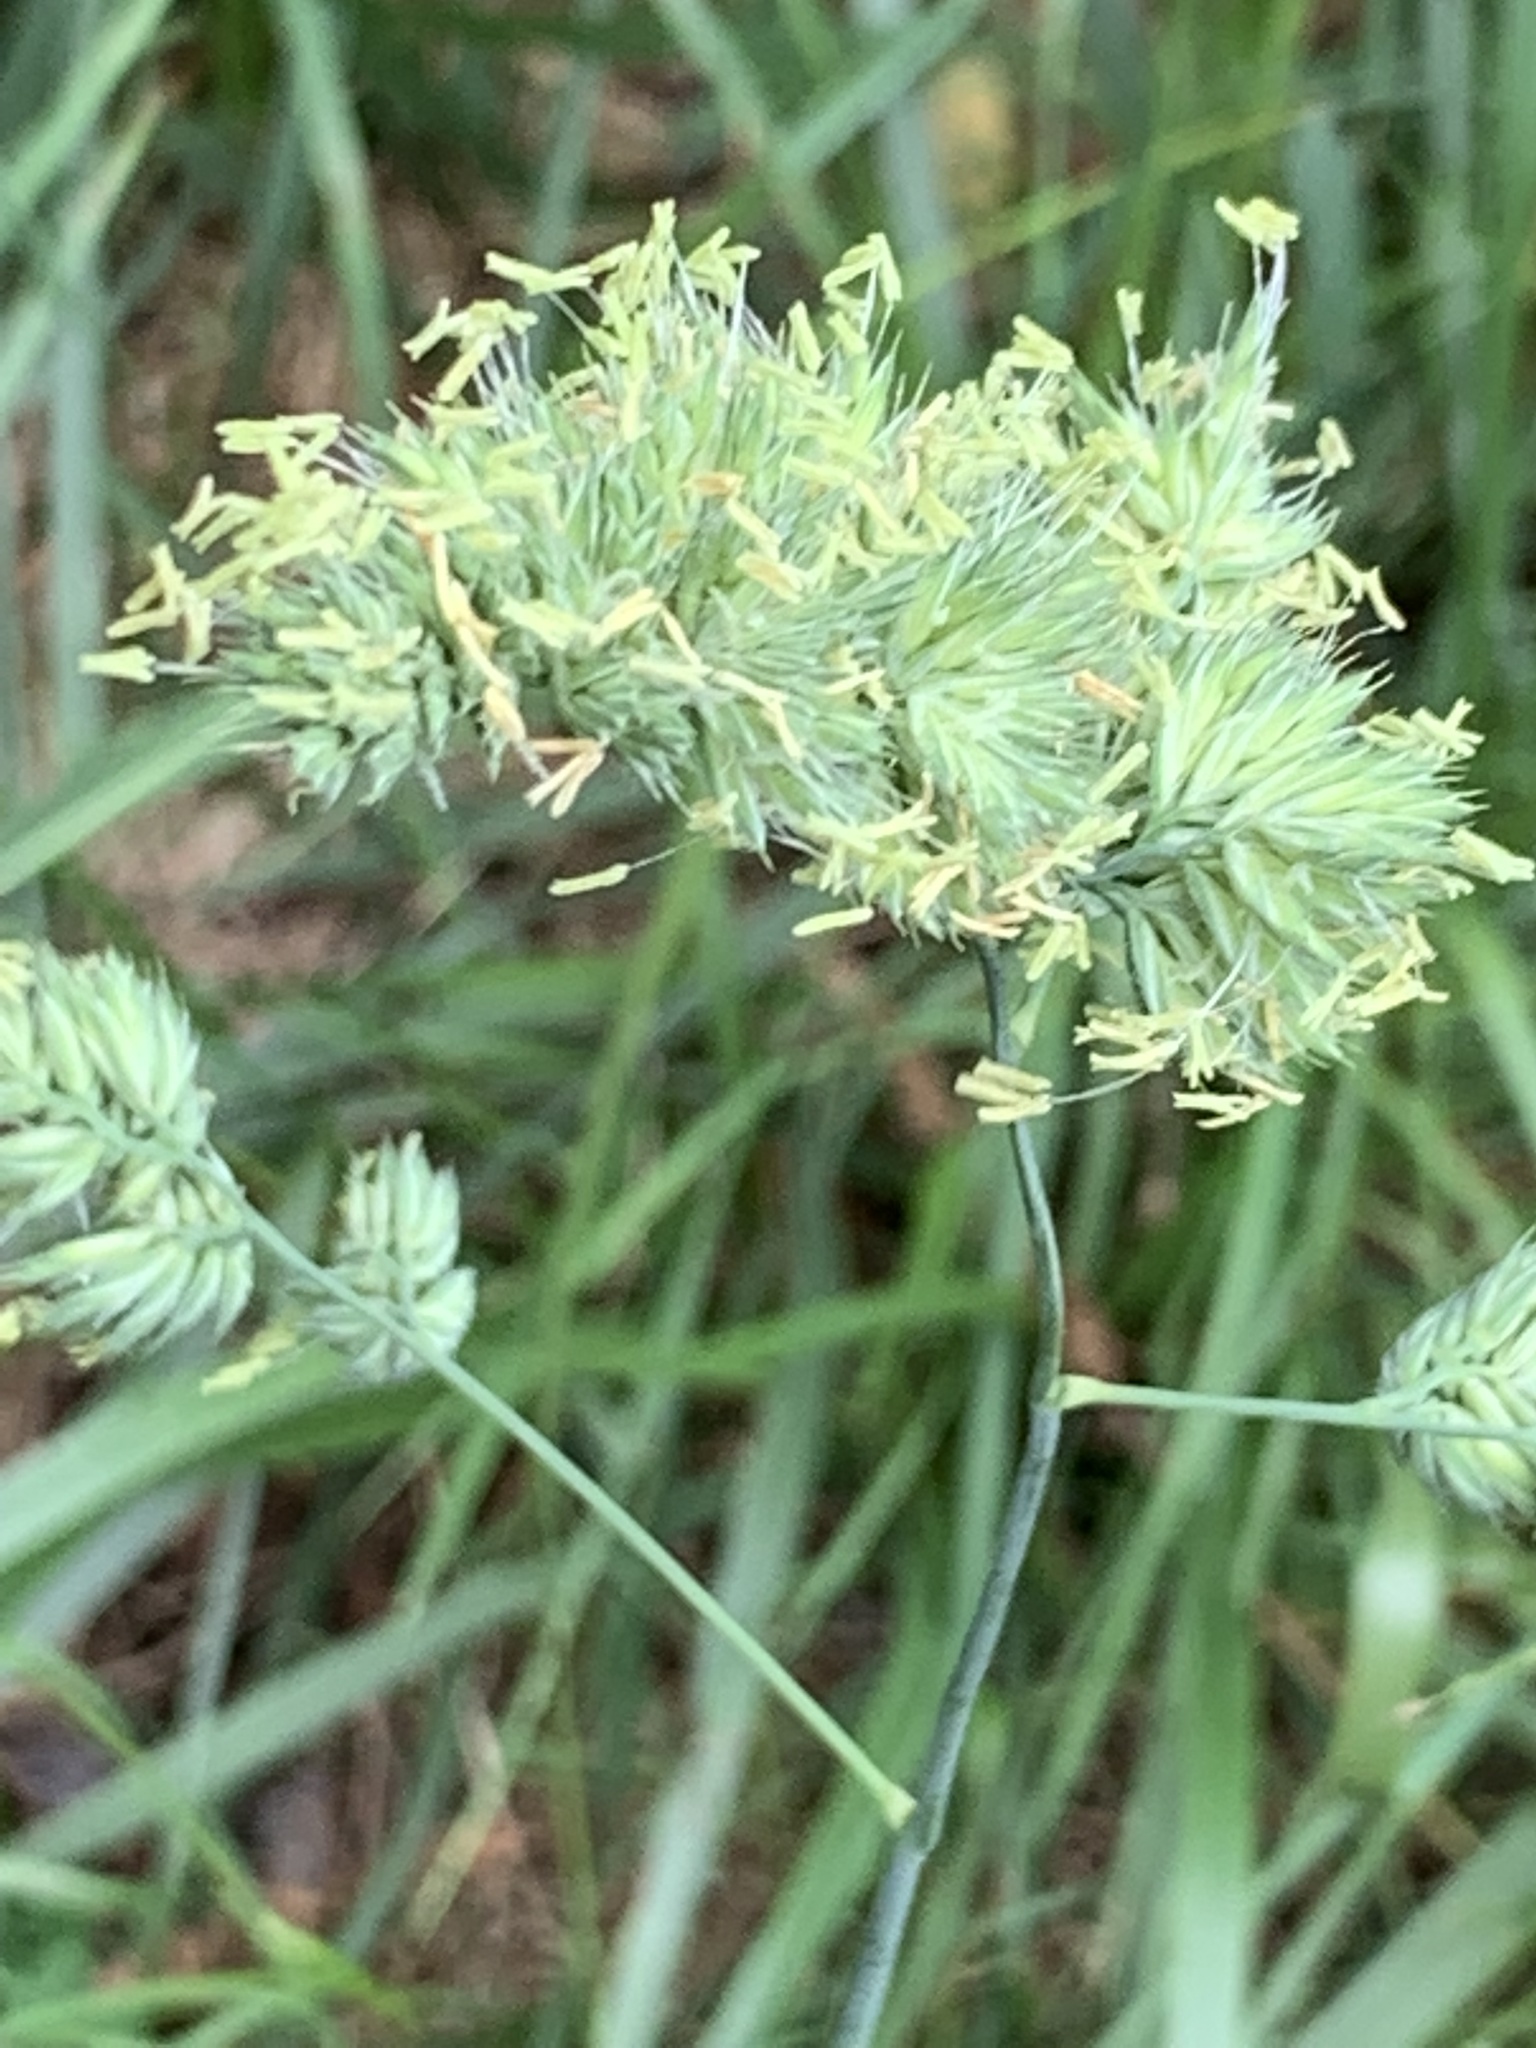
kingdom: Plantae
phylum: Tracheophyta
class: Liliopsida
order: Poales
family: Poaceae
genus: Dactylis
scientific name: Dactylis glomerata
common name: Orchardgrass
